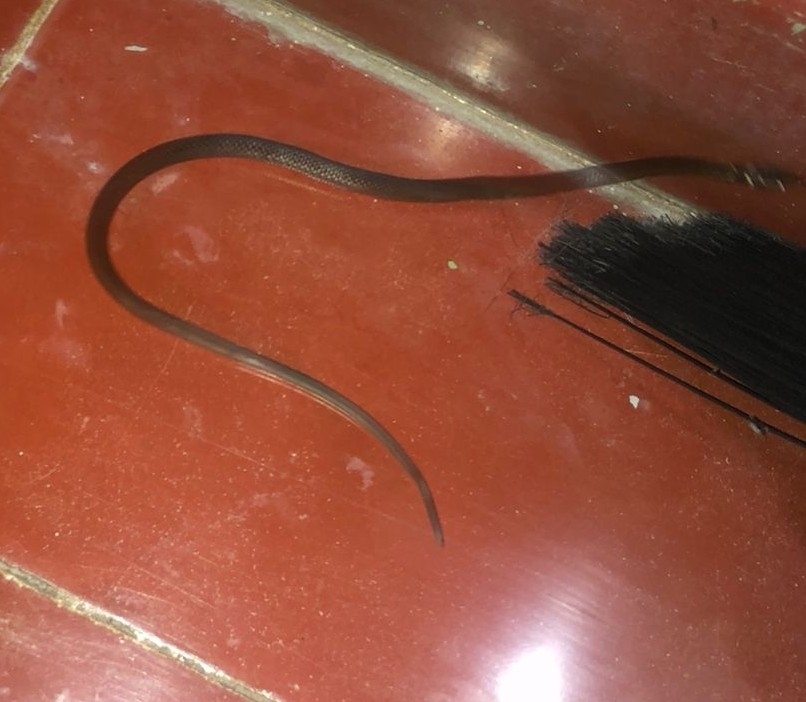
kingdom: Animalia
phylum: Chordata
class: Squamata
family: Colubridae
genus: Coniophanes
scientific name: Coniophanes meridanus
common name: Peninsula stripeless snake
